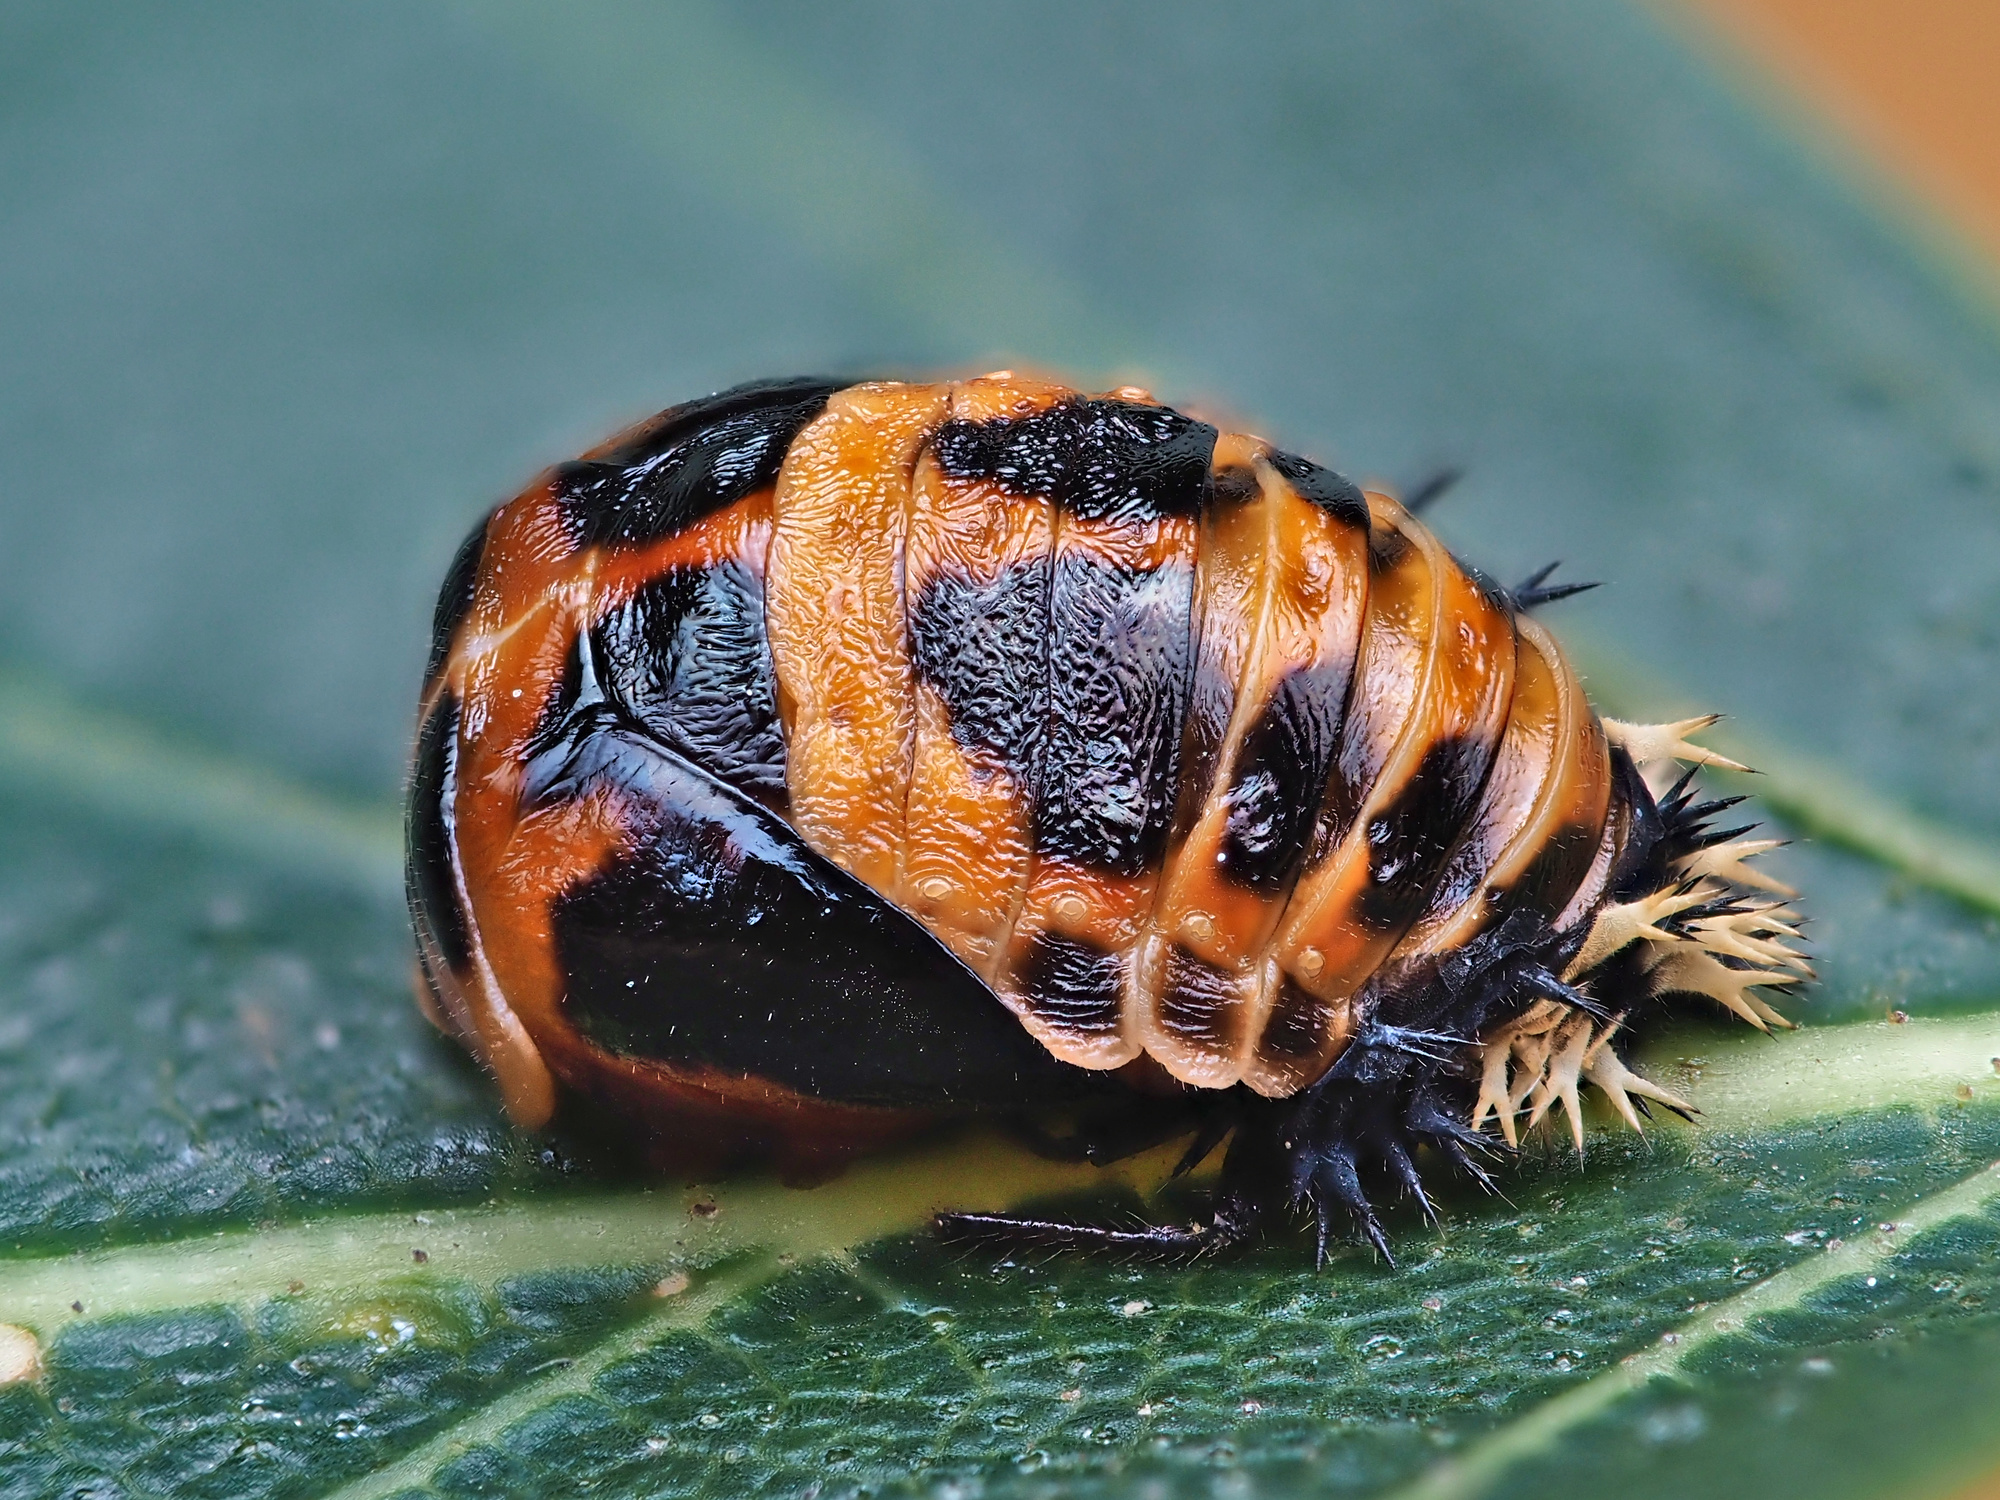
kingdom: Animalia
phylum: Arthropoda
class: Insecta
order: Coleoptera
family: Coccinellidae
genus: Harmonia
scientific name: Harmonia axyridis
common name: Harlequin ladybird
